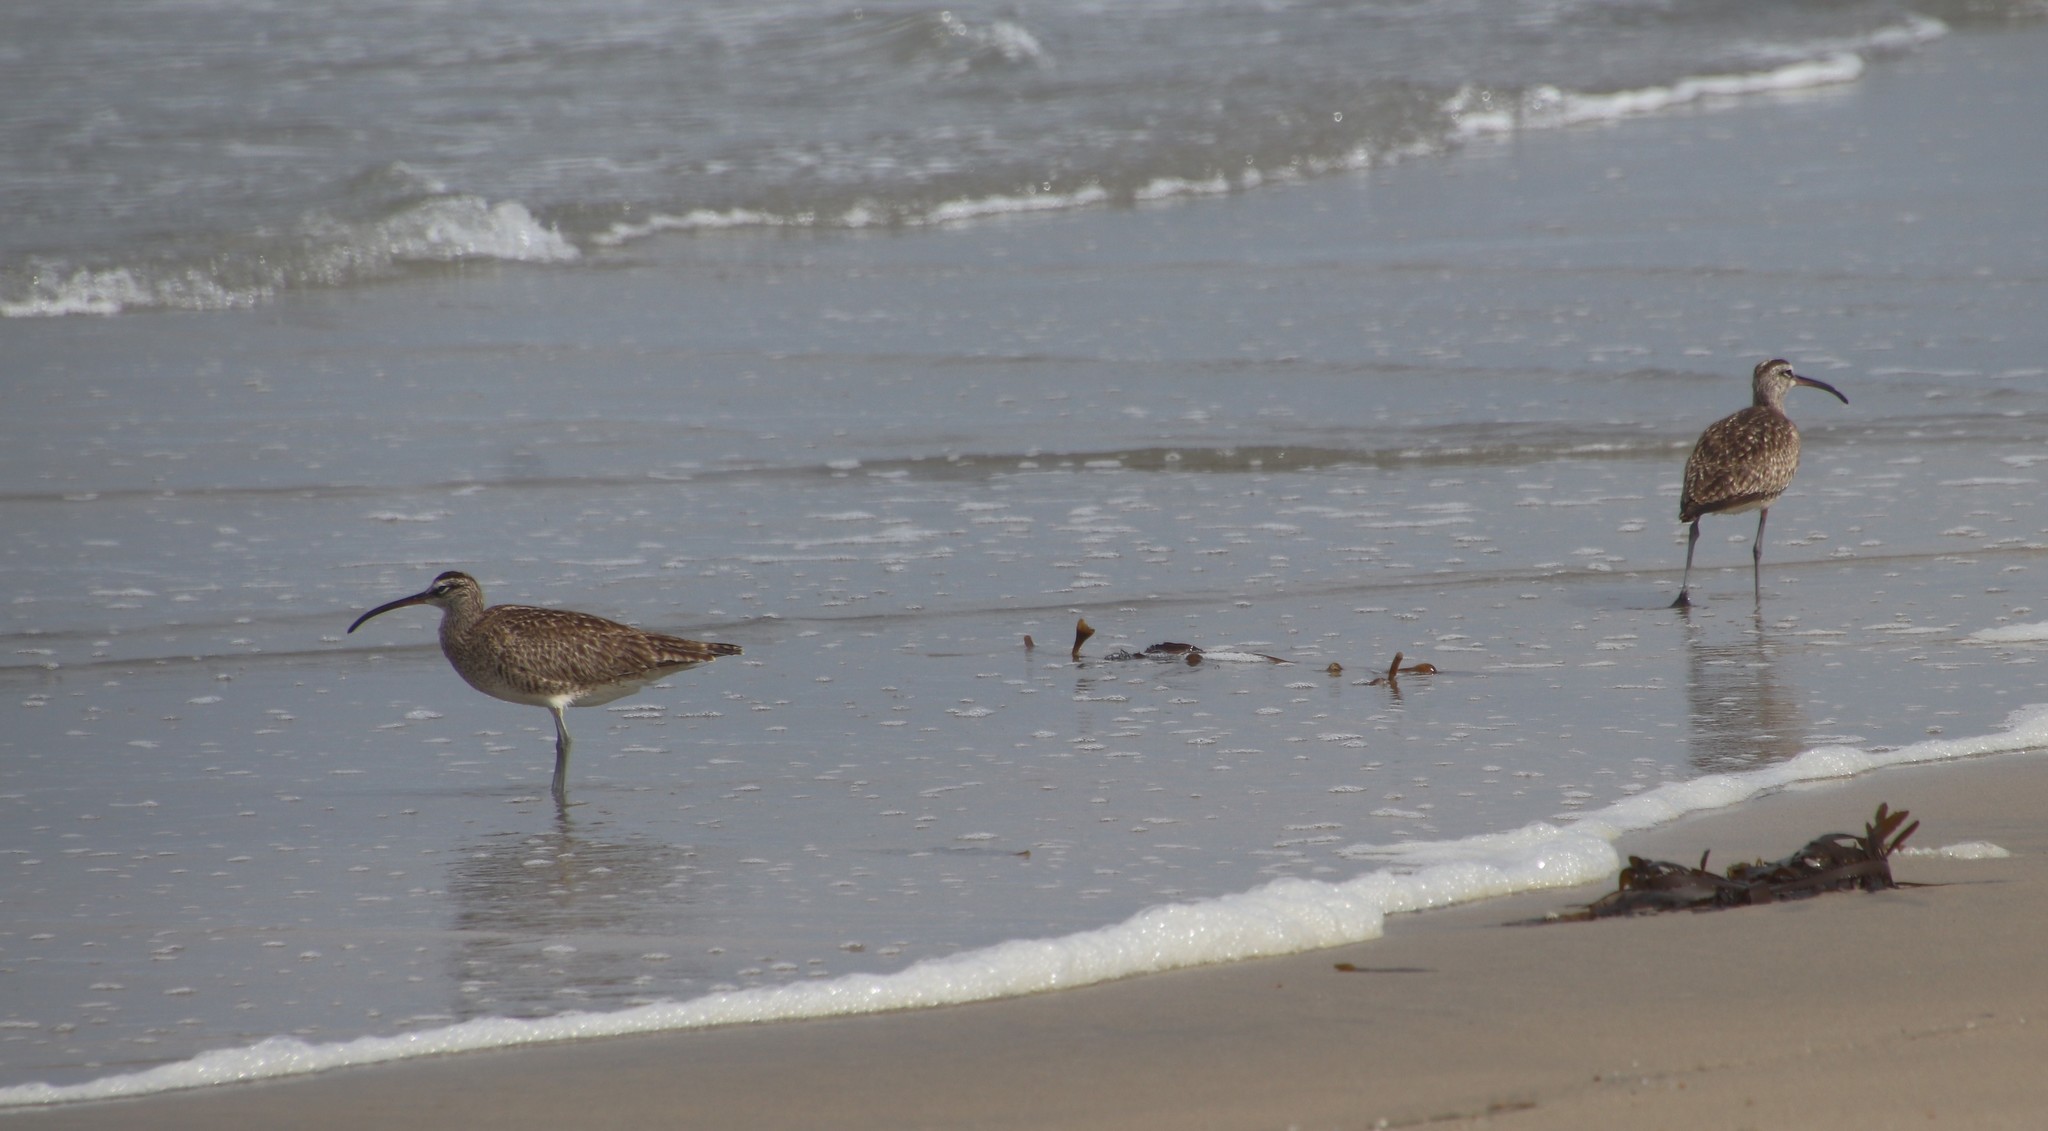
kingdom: Animalia
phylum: Chordata
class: Aves
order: Charadriiformes
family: Scolopacidae
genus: Numenius
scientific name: Numenius phaeopus
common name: Whimbrel
